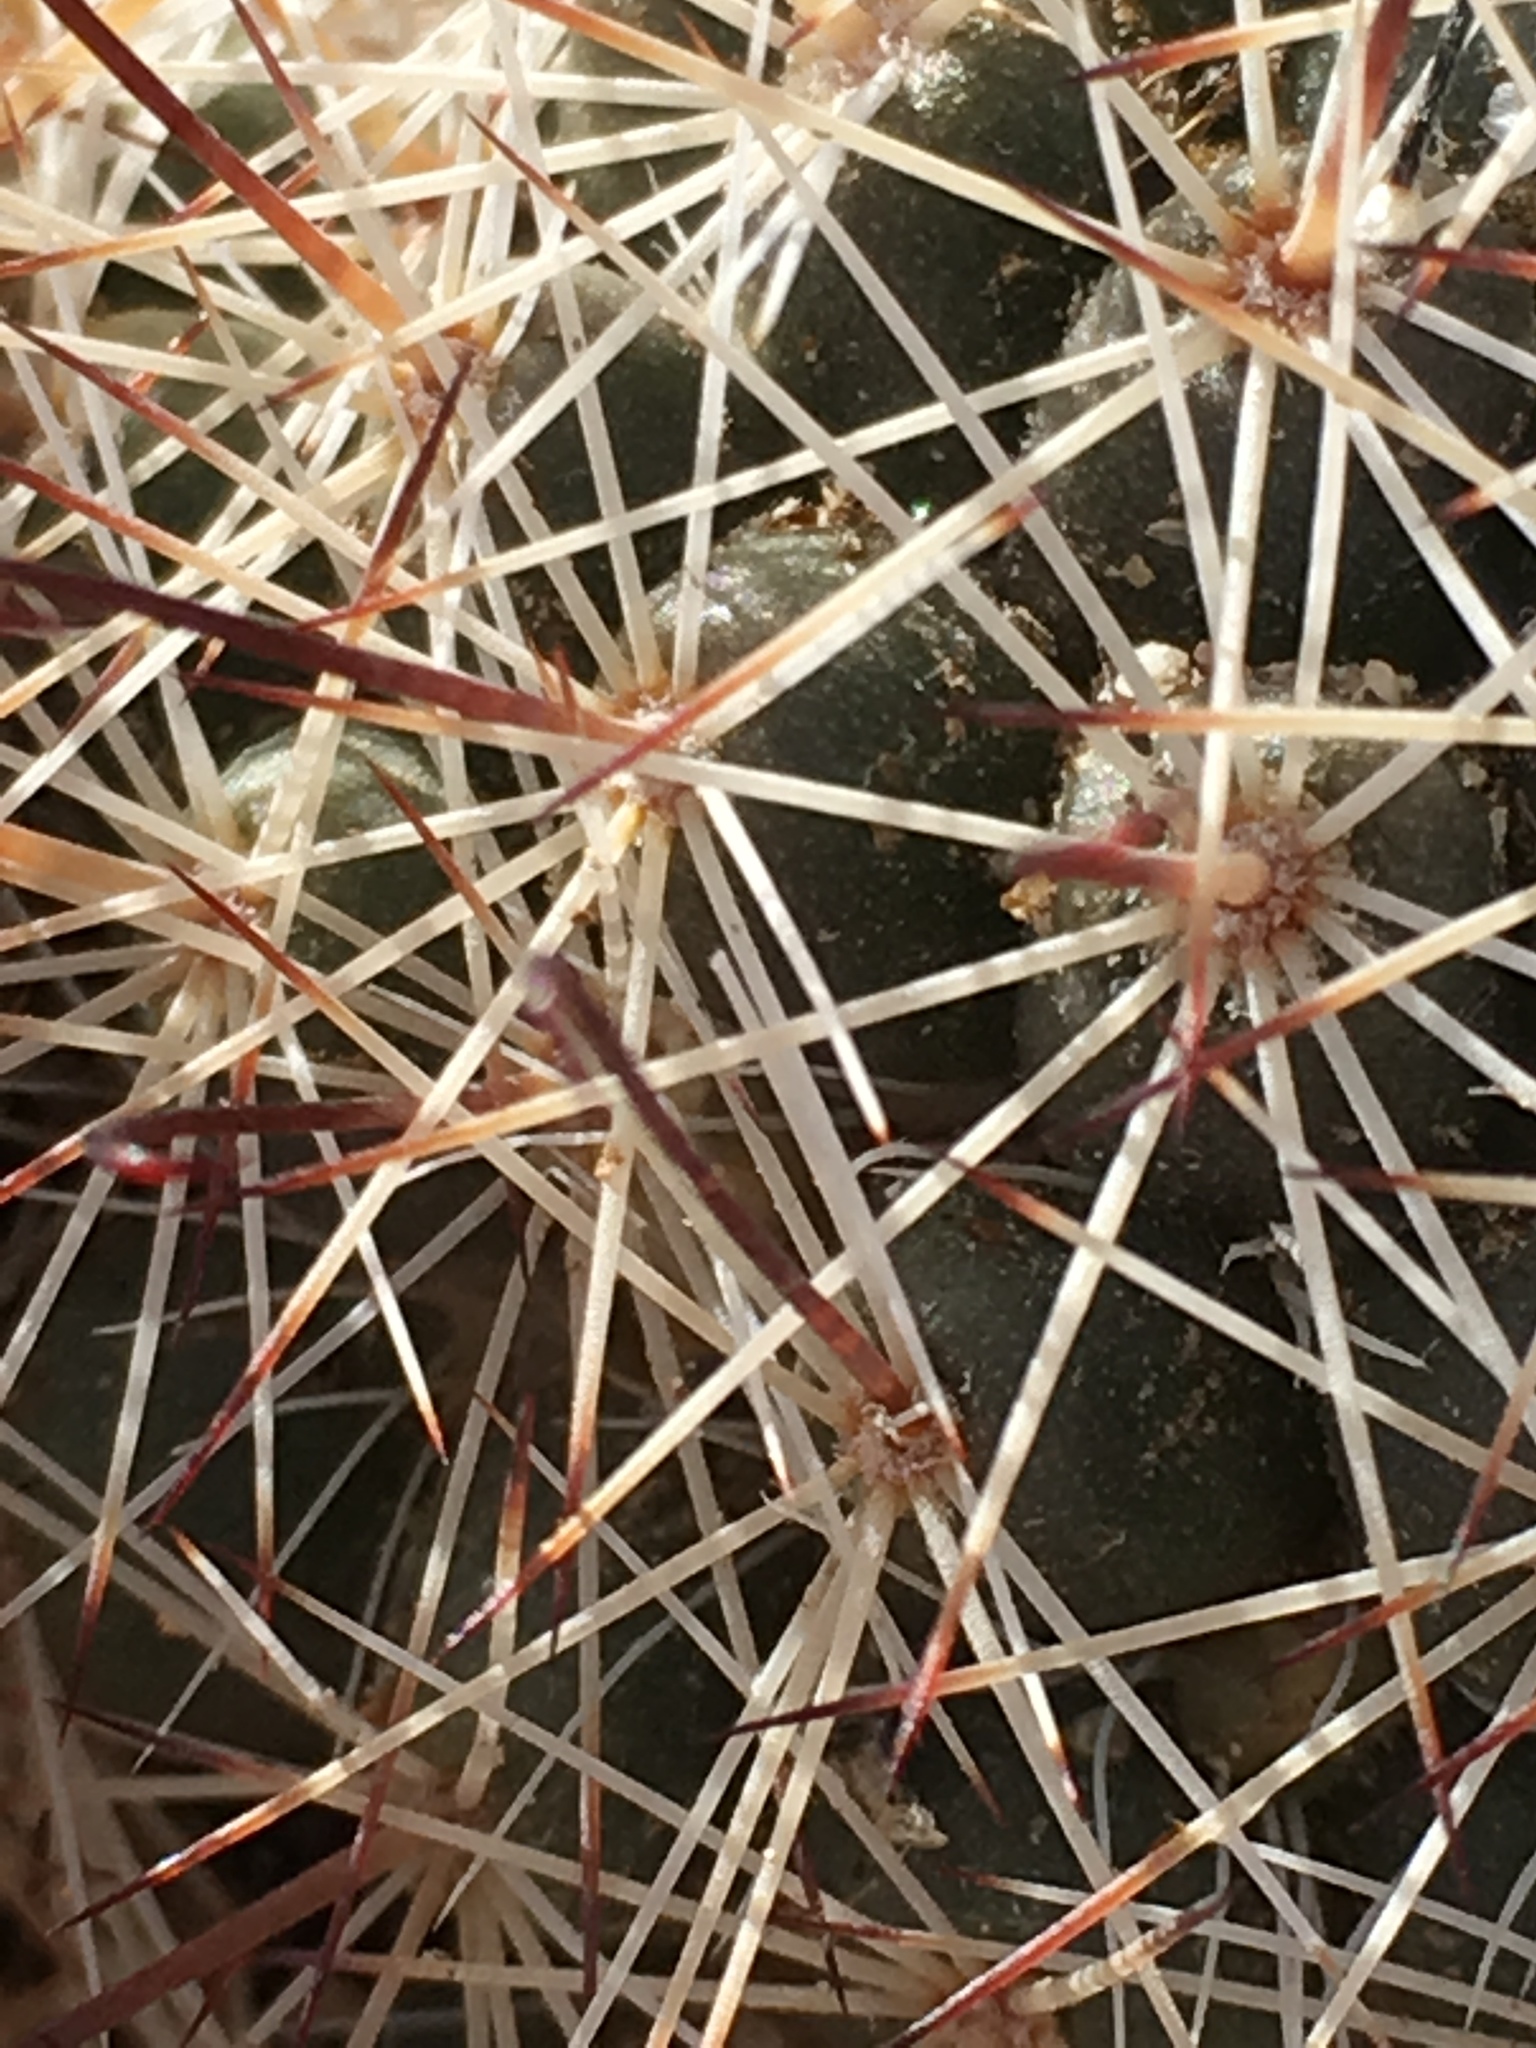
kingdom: Plantae
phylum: Tracheophyta
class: Magnoliopsida
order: Caryophyllales
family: Cactaceae
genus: Cochemiea
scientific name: Cochemiea dioica
